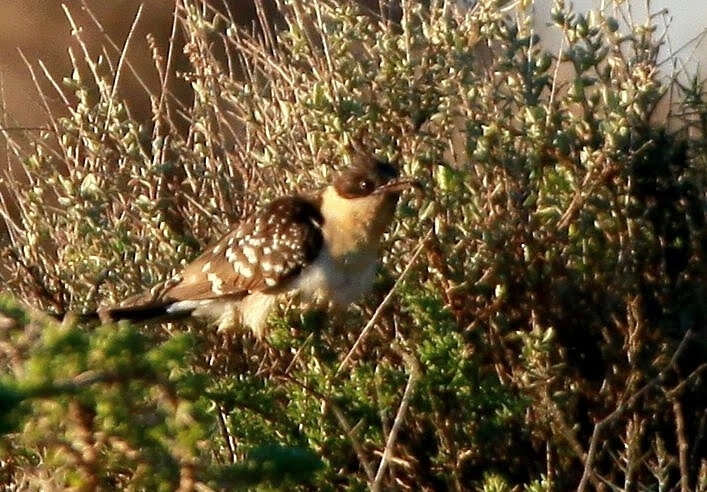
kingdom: Animalia
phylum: Chordata
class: Aves
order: Cuculiformes
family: Cuculidae
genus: Clamator
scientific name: Clamator glandarius
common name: Great spotted cuckoo
